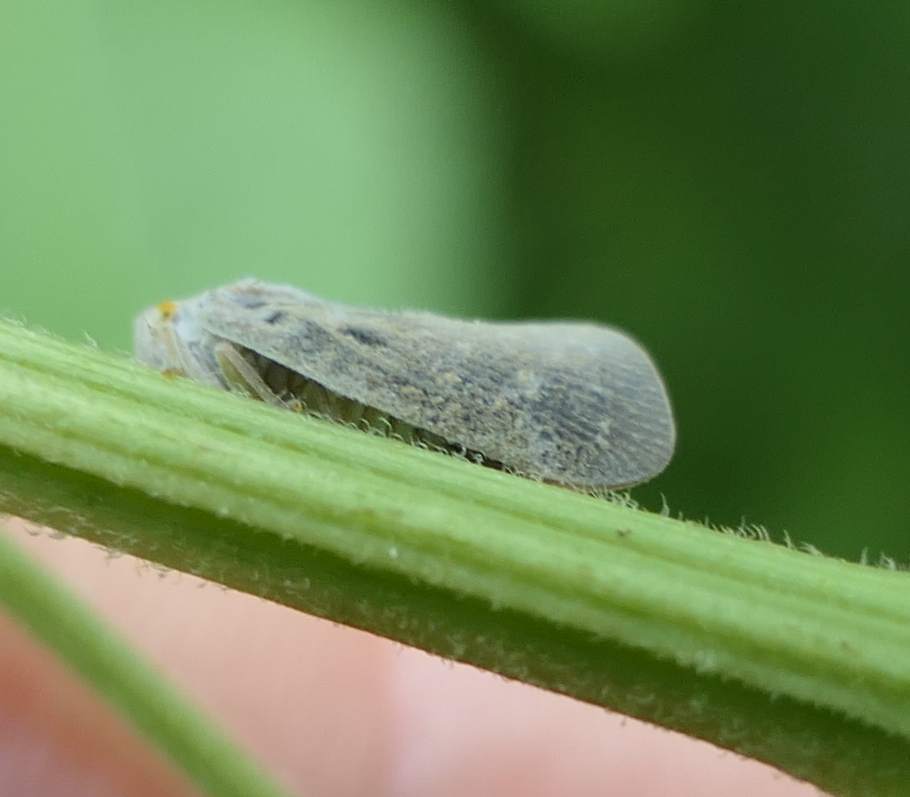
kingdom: Animalia
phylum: Arthropoda
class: Insecta
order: Hemiptera
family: Flatidae
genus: Metcalfa
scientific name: Metcalfa pruinosa
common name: Citrus flatid planthopper
